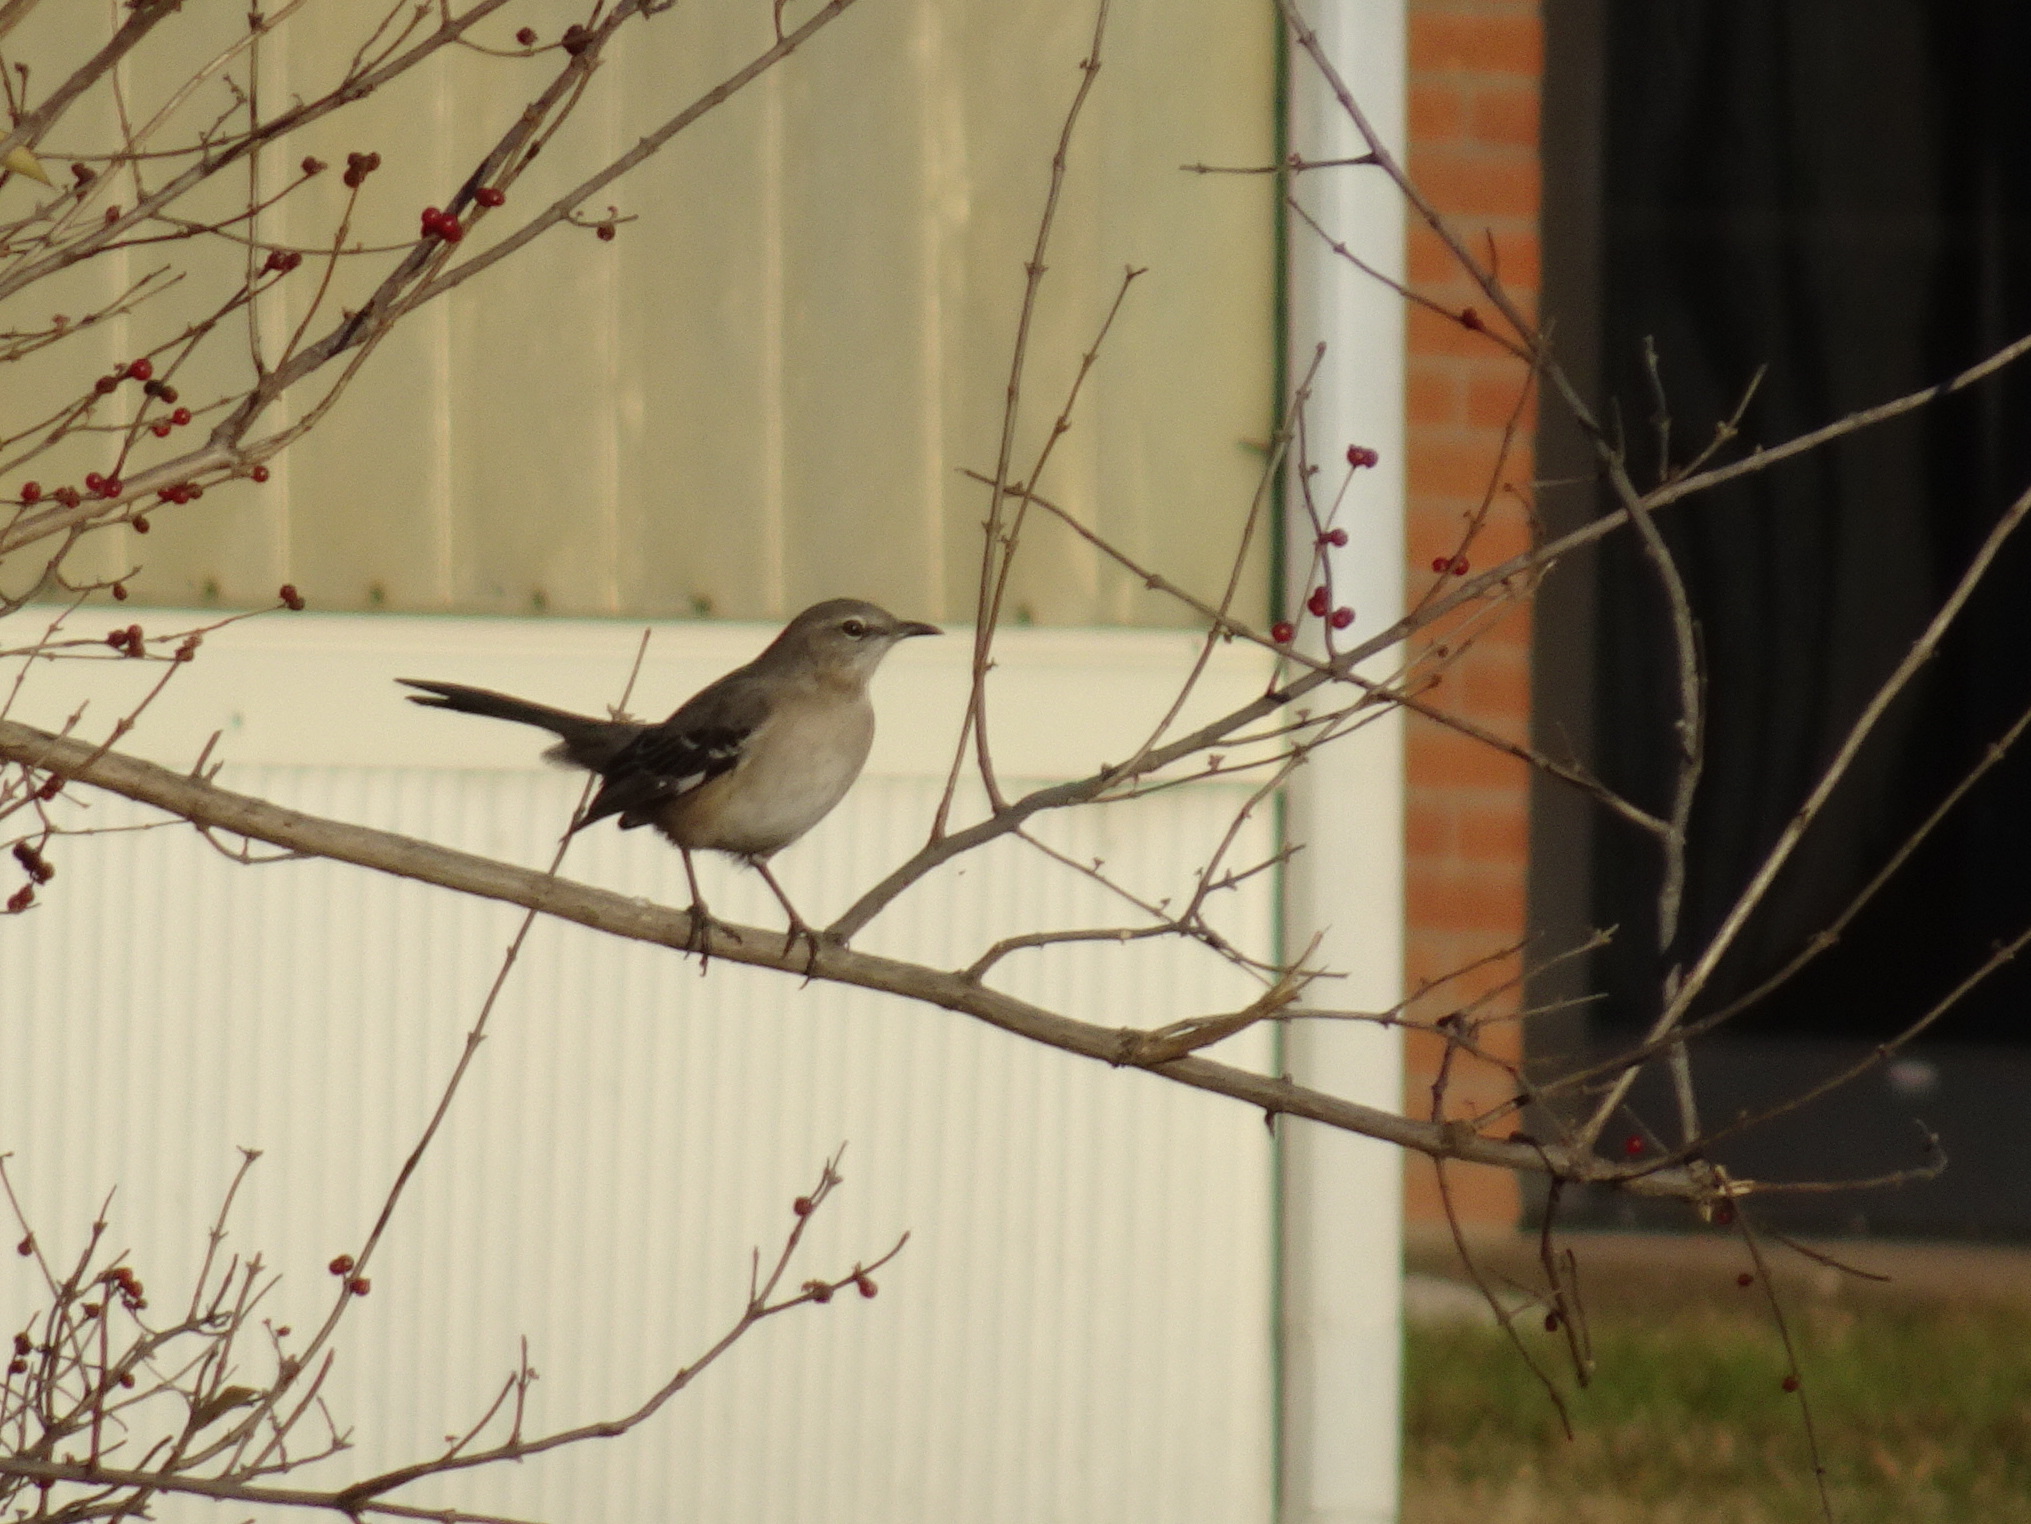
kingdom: Animalia
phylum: Chordata
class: Aves
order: Passeriformes
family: Mimidae
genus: Mimus
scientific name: Mimus polyglottos
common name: Northern mockingbird
